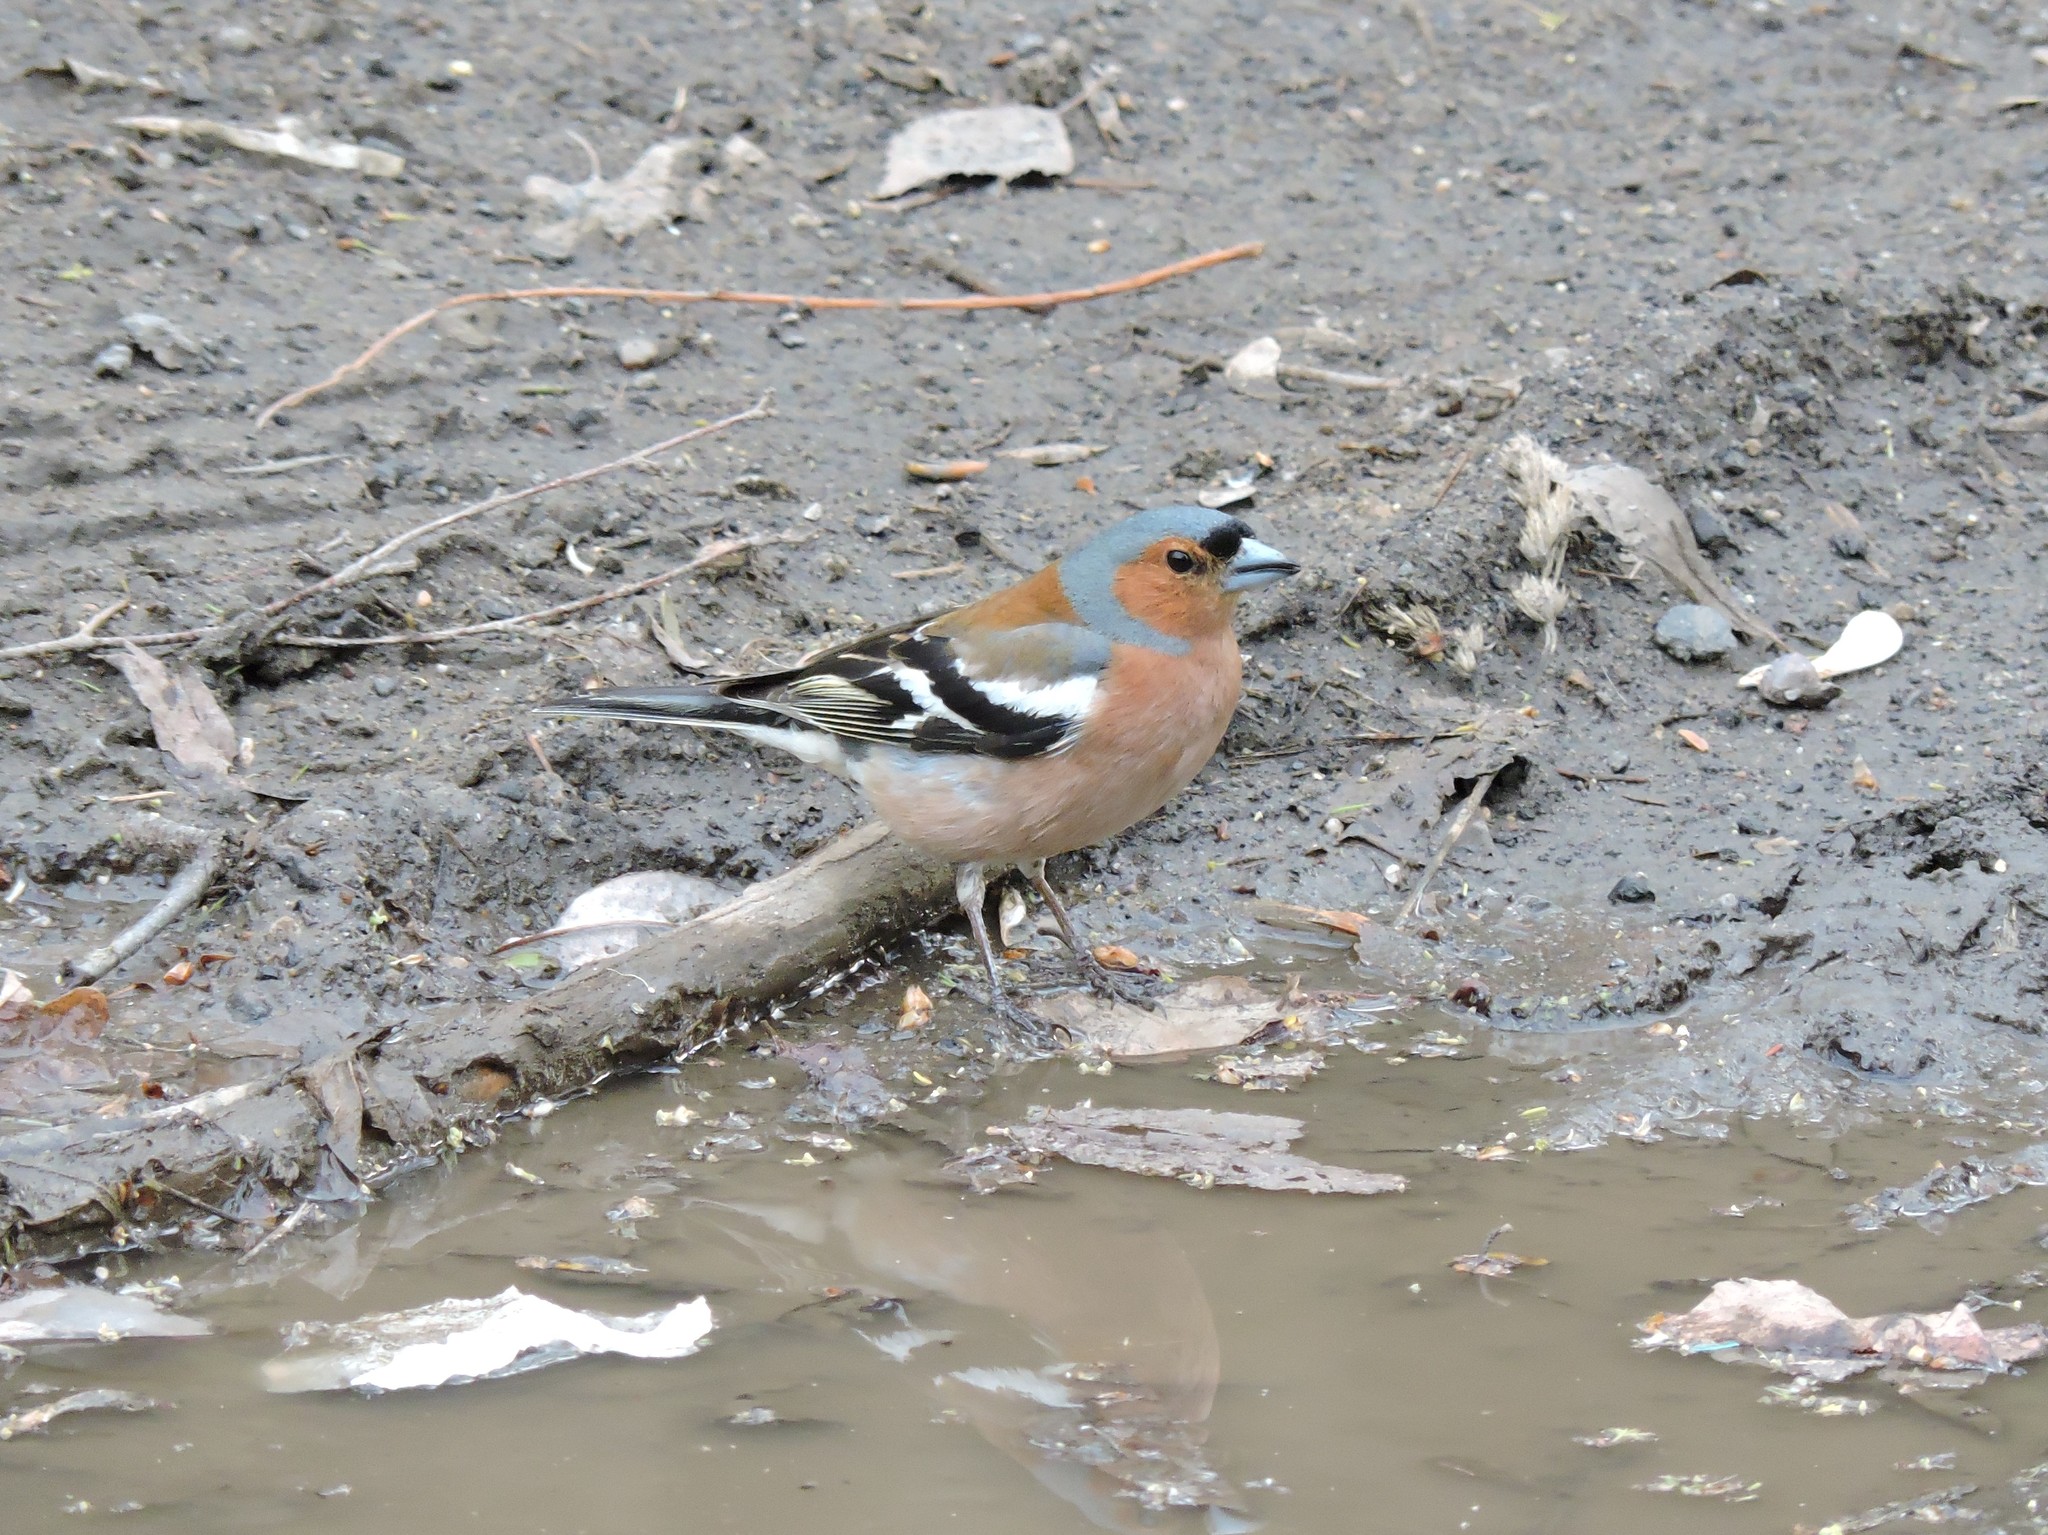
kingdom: Animalia
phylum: Chordata
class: Aves
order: Passeriformes
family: Fringillidae
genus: Fringilla
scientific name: Fringilla coelebs
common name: Common chaffinch
